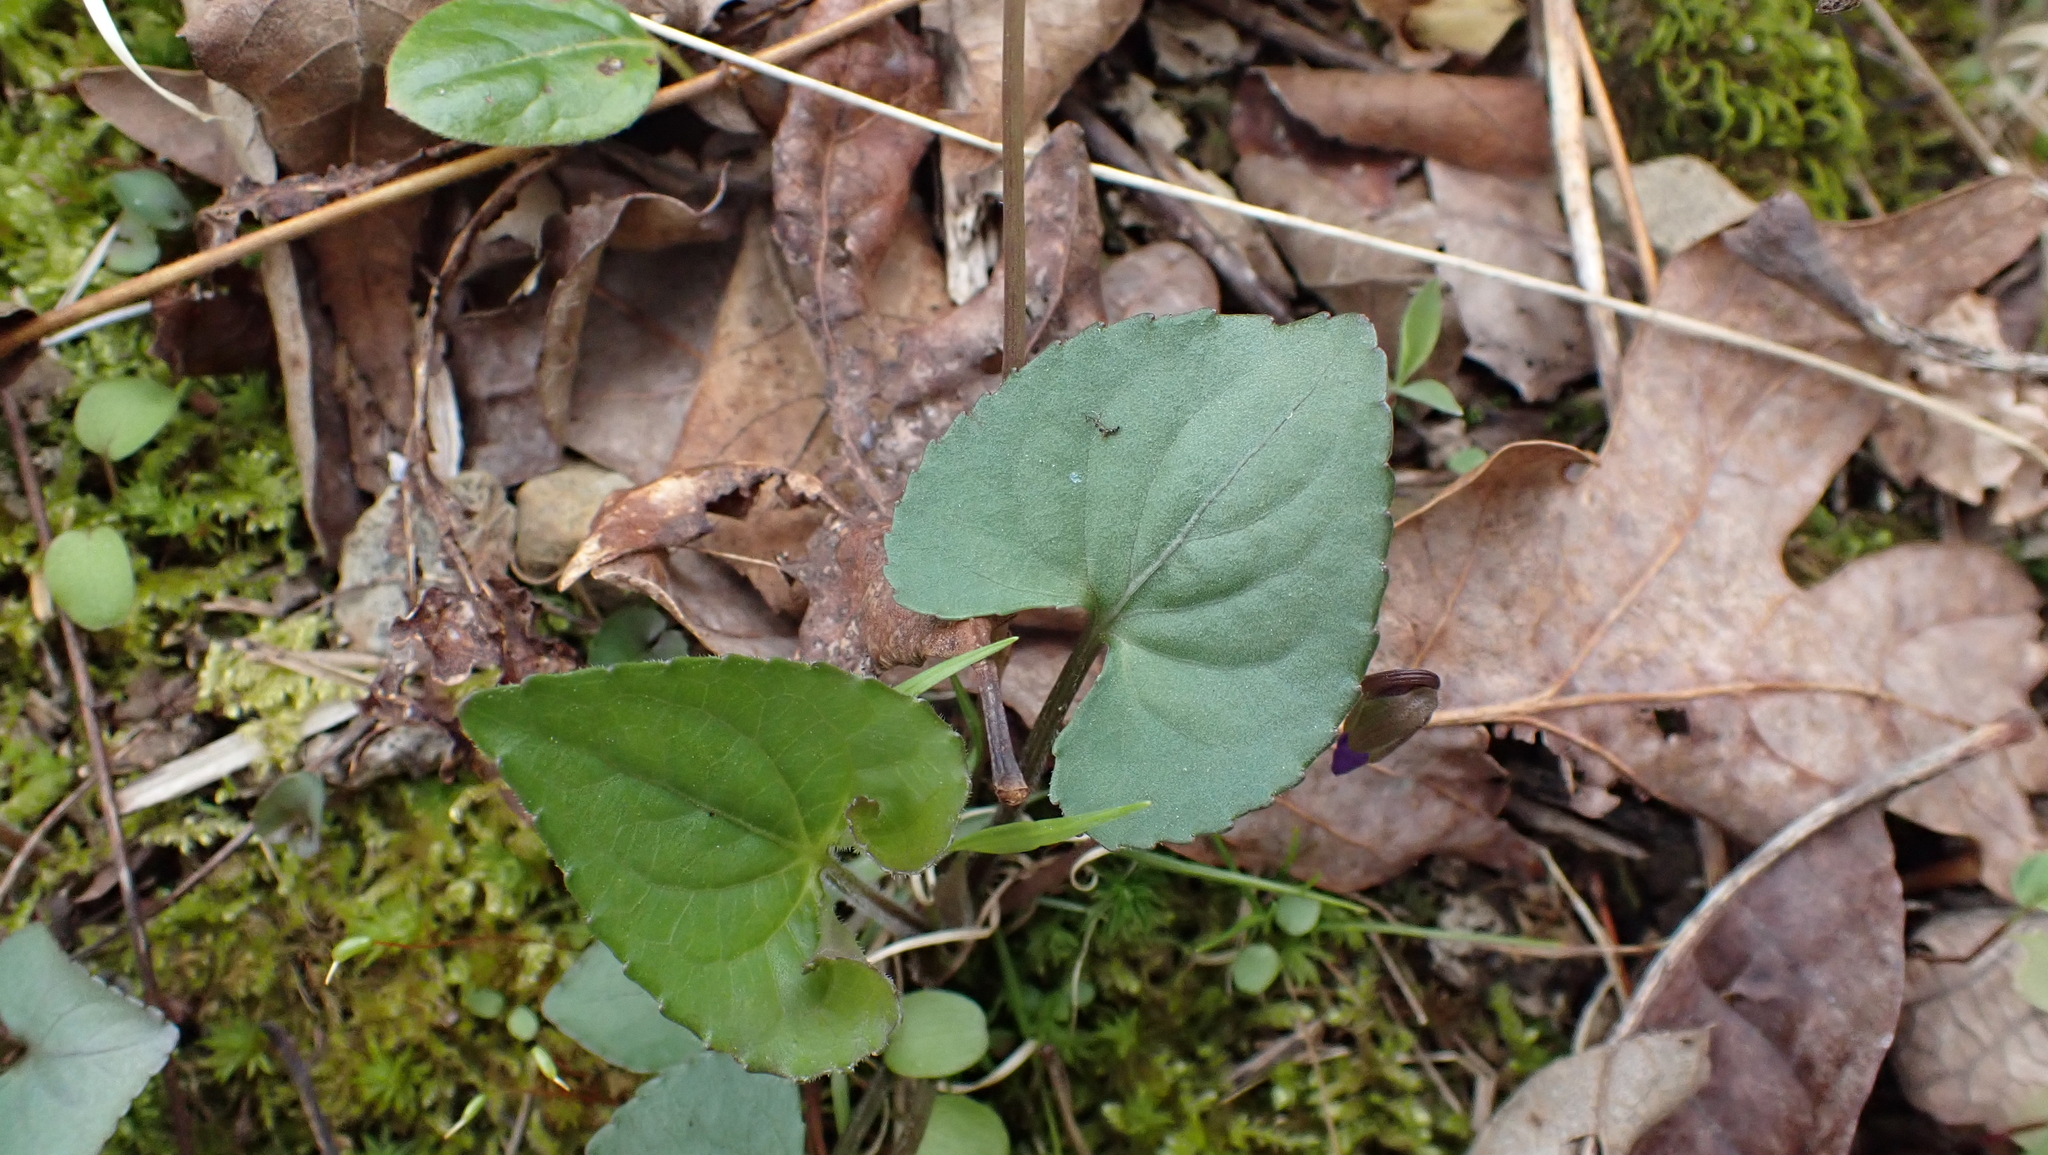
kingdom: Plantae
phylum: Tracheophyta
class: Magnoliopsida
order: Malpighiales
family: Violaceae
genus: Viola
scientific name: Viola sororia
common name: Dooryard violet
